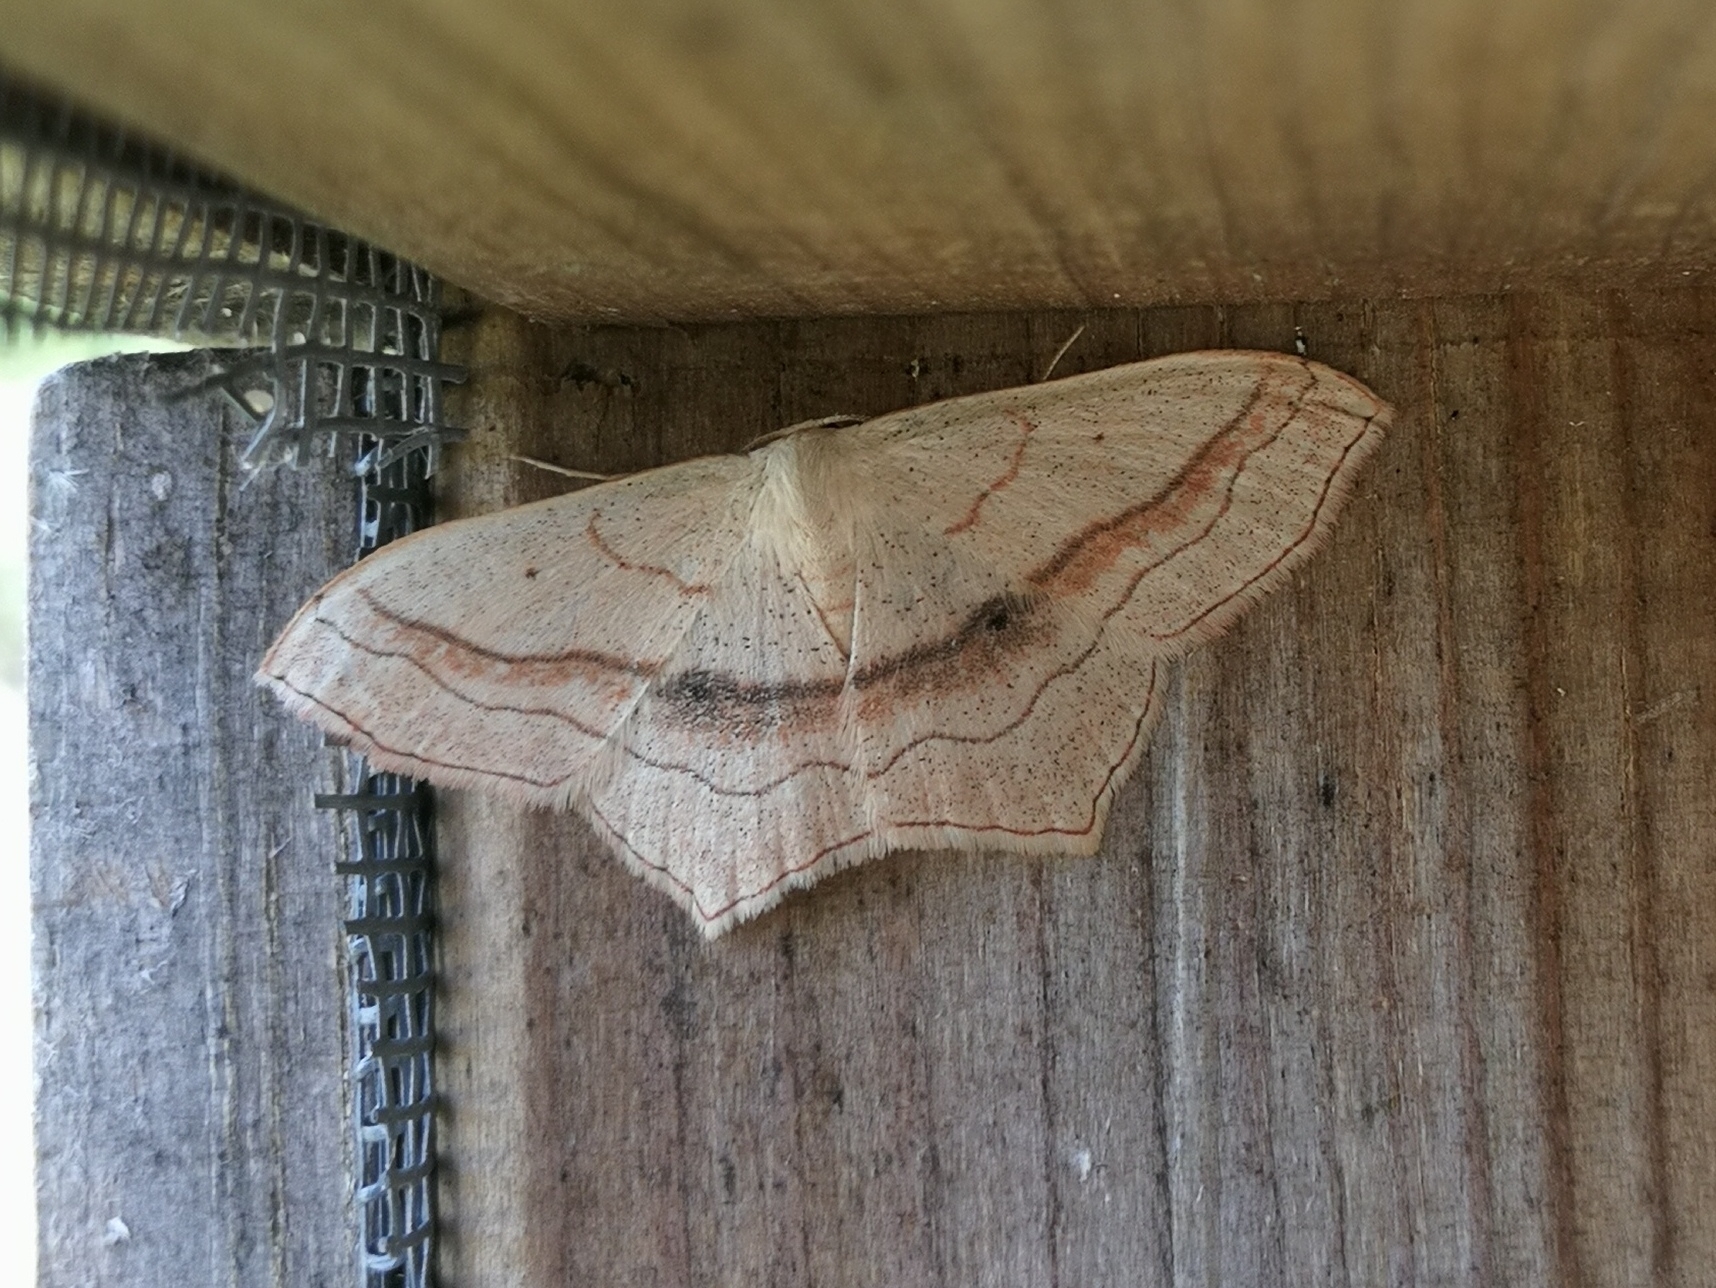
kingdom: Animalia
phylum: Arthropoda
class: Insecta
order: Lepidoptera
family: Geometridae
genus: Scopula
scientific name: Scopula imitaria
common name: Small blood-vein
